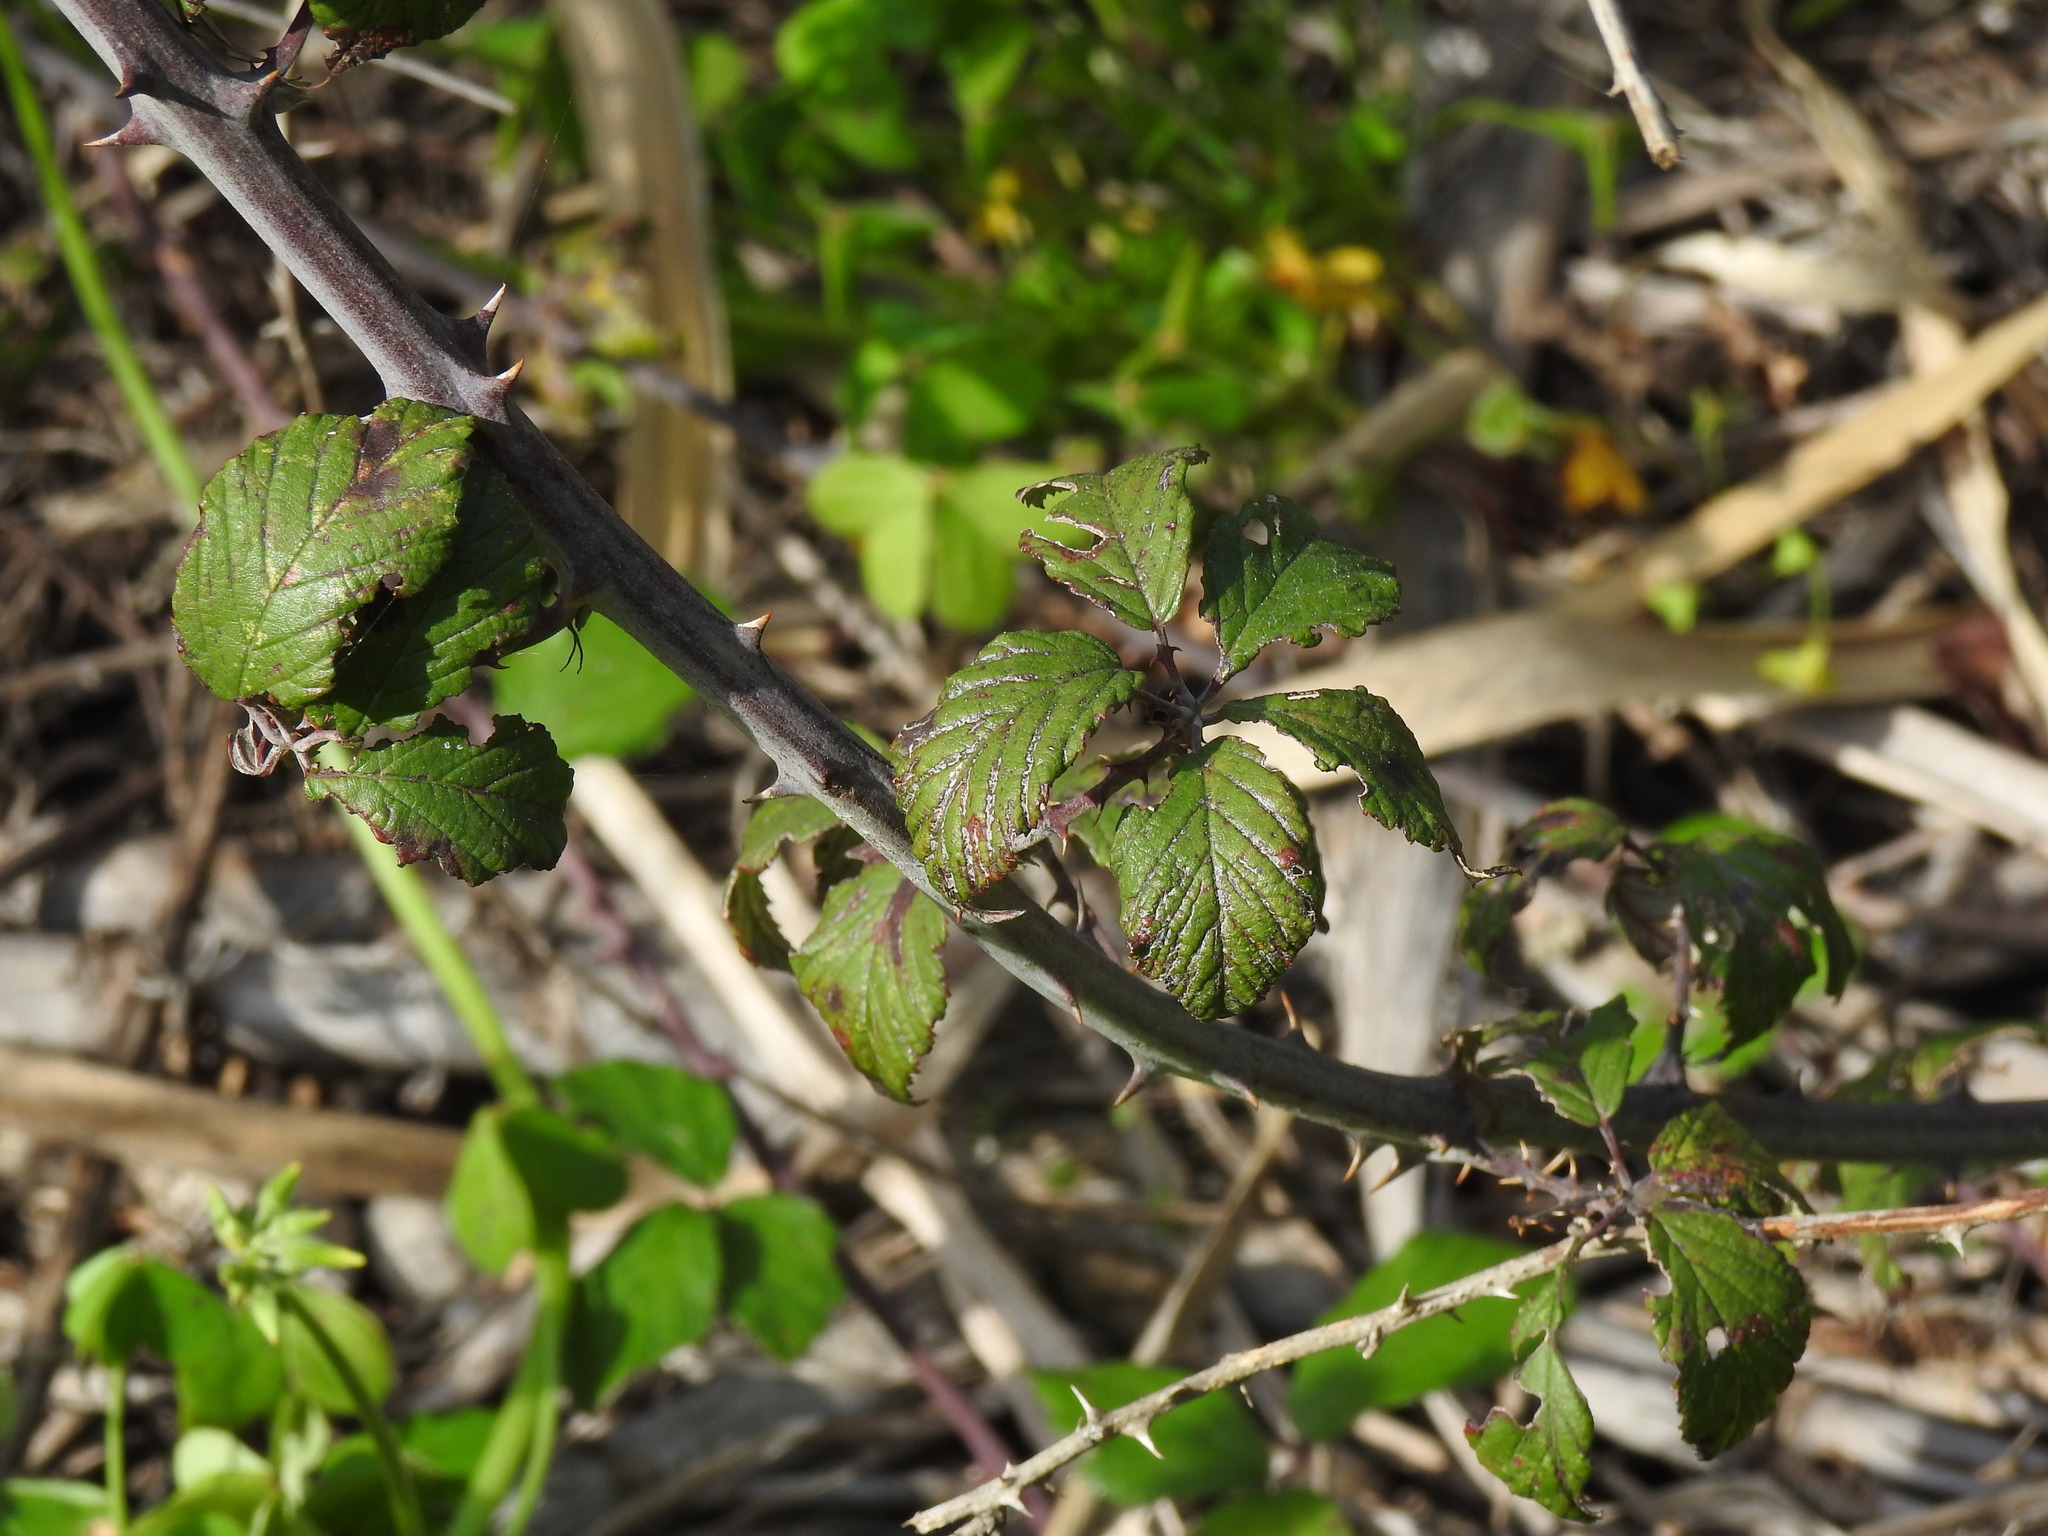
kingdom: Plantae
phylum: Tracheophyta
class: Magnoliopsida
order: Rosales
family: Rosaceae
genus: Rubus
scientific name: Rubus ulmifolius
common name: Elmleaf blackberry
